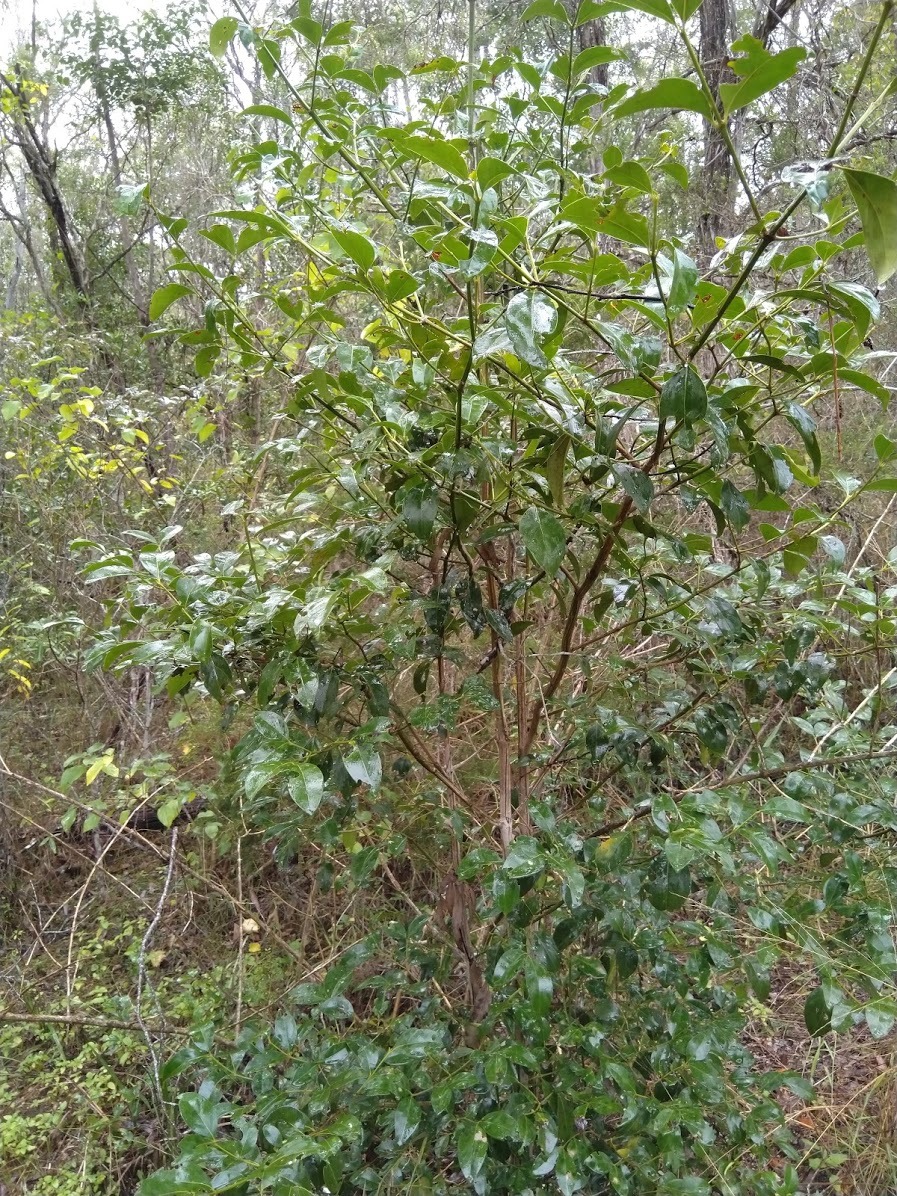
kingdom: Plantae
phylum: Tracheophyta
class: Magnoliopsida
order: Gentianales
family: Rubiaceae
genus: Psydrax
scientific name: Psydrax odoratus
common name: Alahe'e
